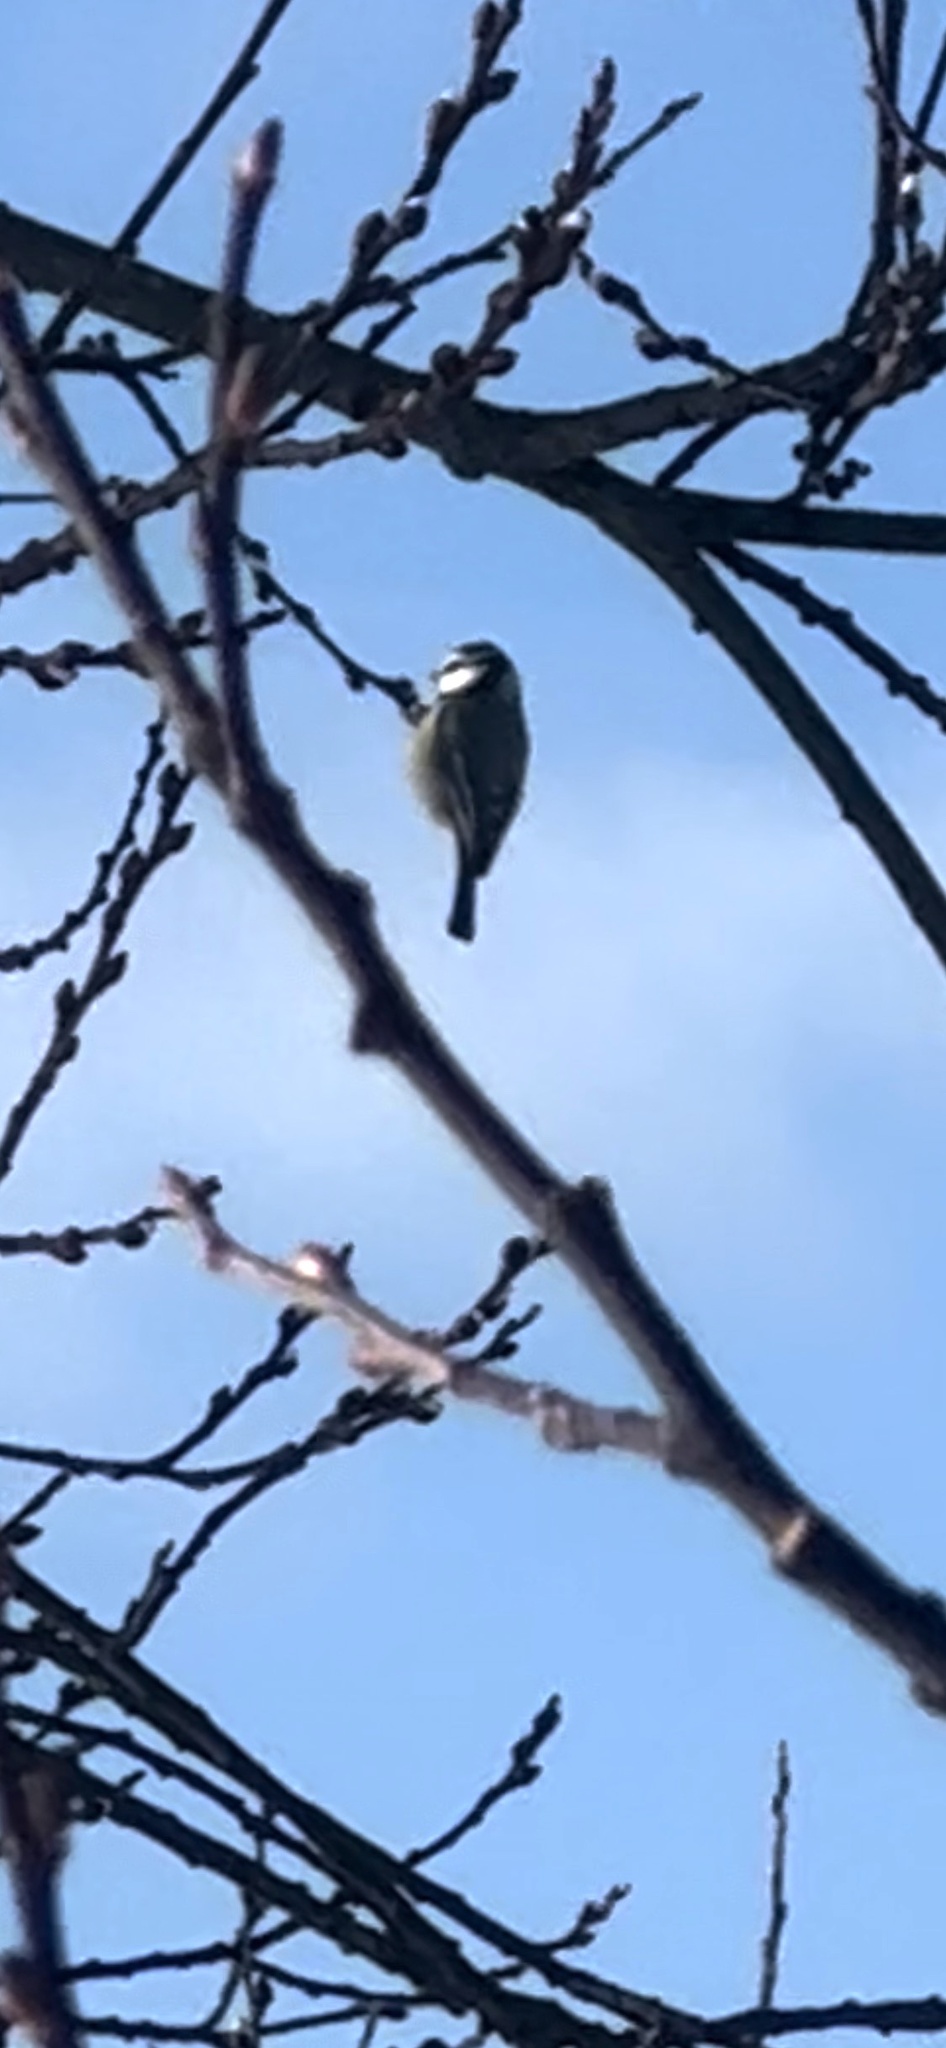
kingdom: Animalia
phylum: Chordata
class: Aves
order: Passeriformes
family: Paridae
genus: Cyanistes
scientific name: Cyanistes caeruleus
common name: Eurasian blue tit
